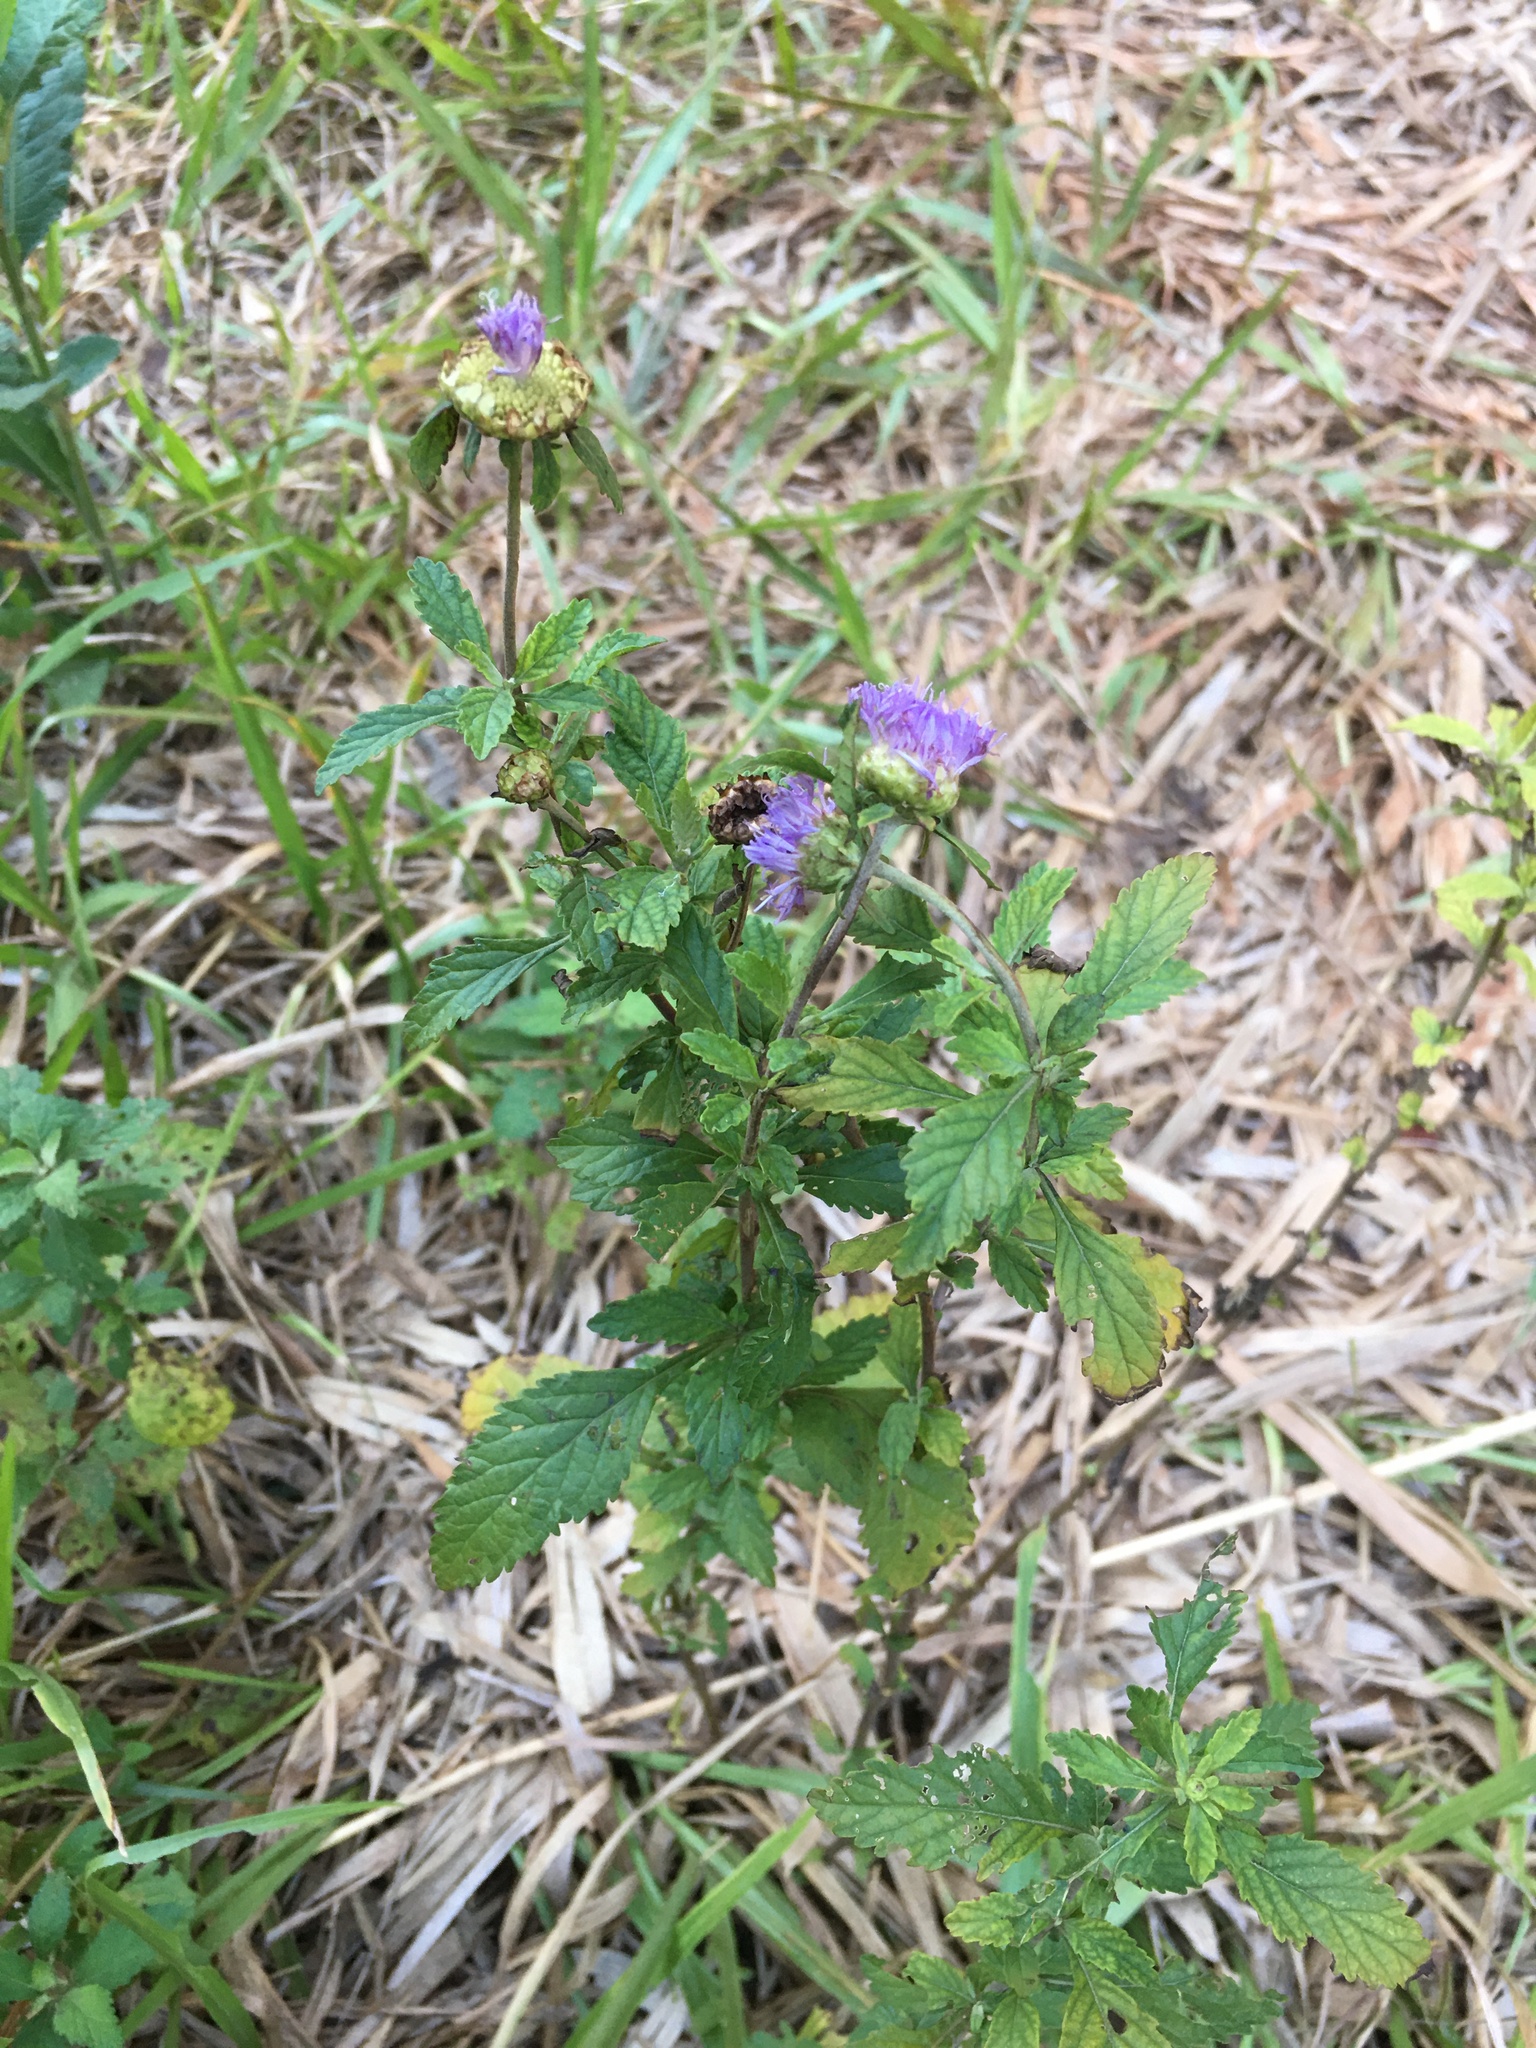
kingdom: Plantae
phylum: Tracheophyta
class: Magnoliopsida
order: Asterales
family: Asteraceae
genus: Centratherum
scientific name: Centratherum punctatum
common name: Larkdaisy
